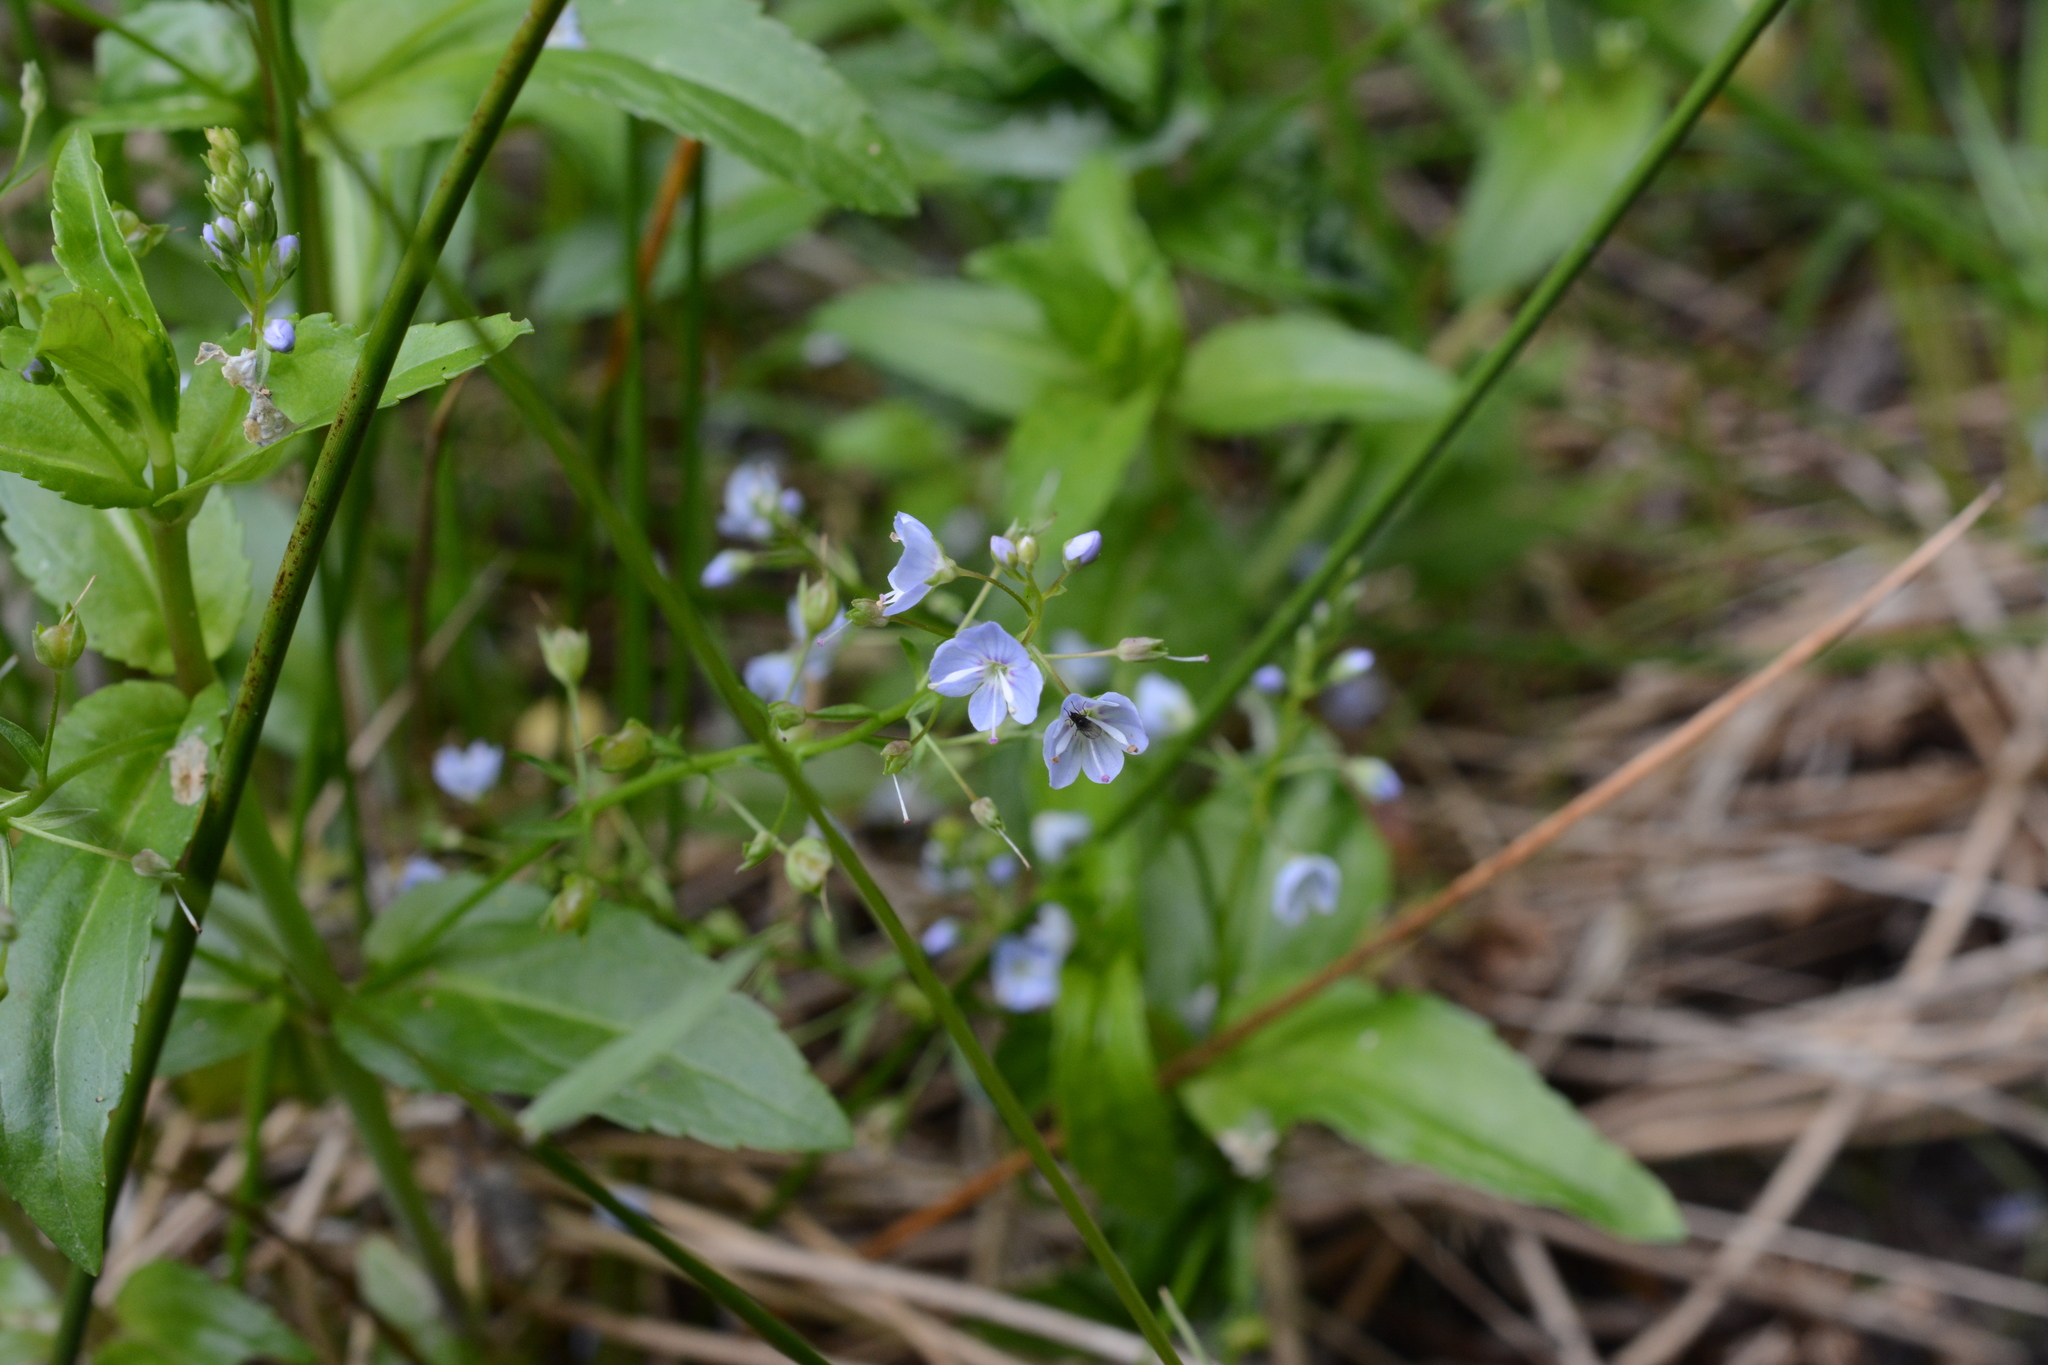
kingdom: Plantae
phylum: Tracheophyta
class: Magnoliopsida
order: Lamiales
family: Plantaginaceae
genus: Veronica
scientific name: Veronica americana
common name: American brooklime
